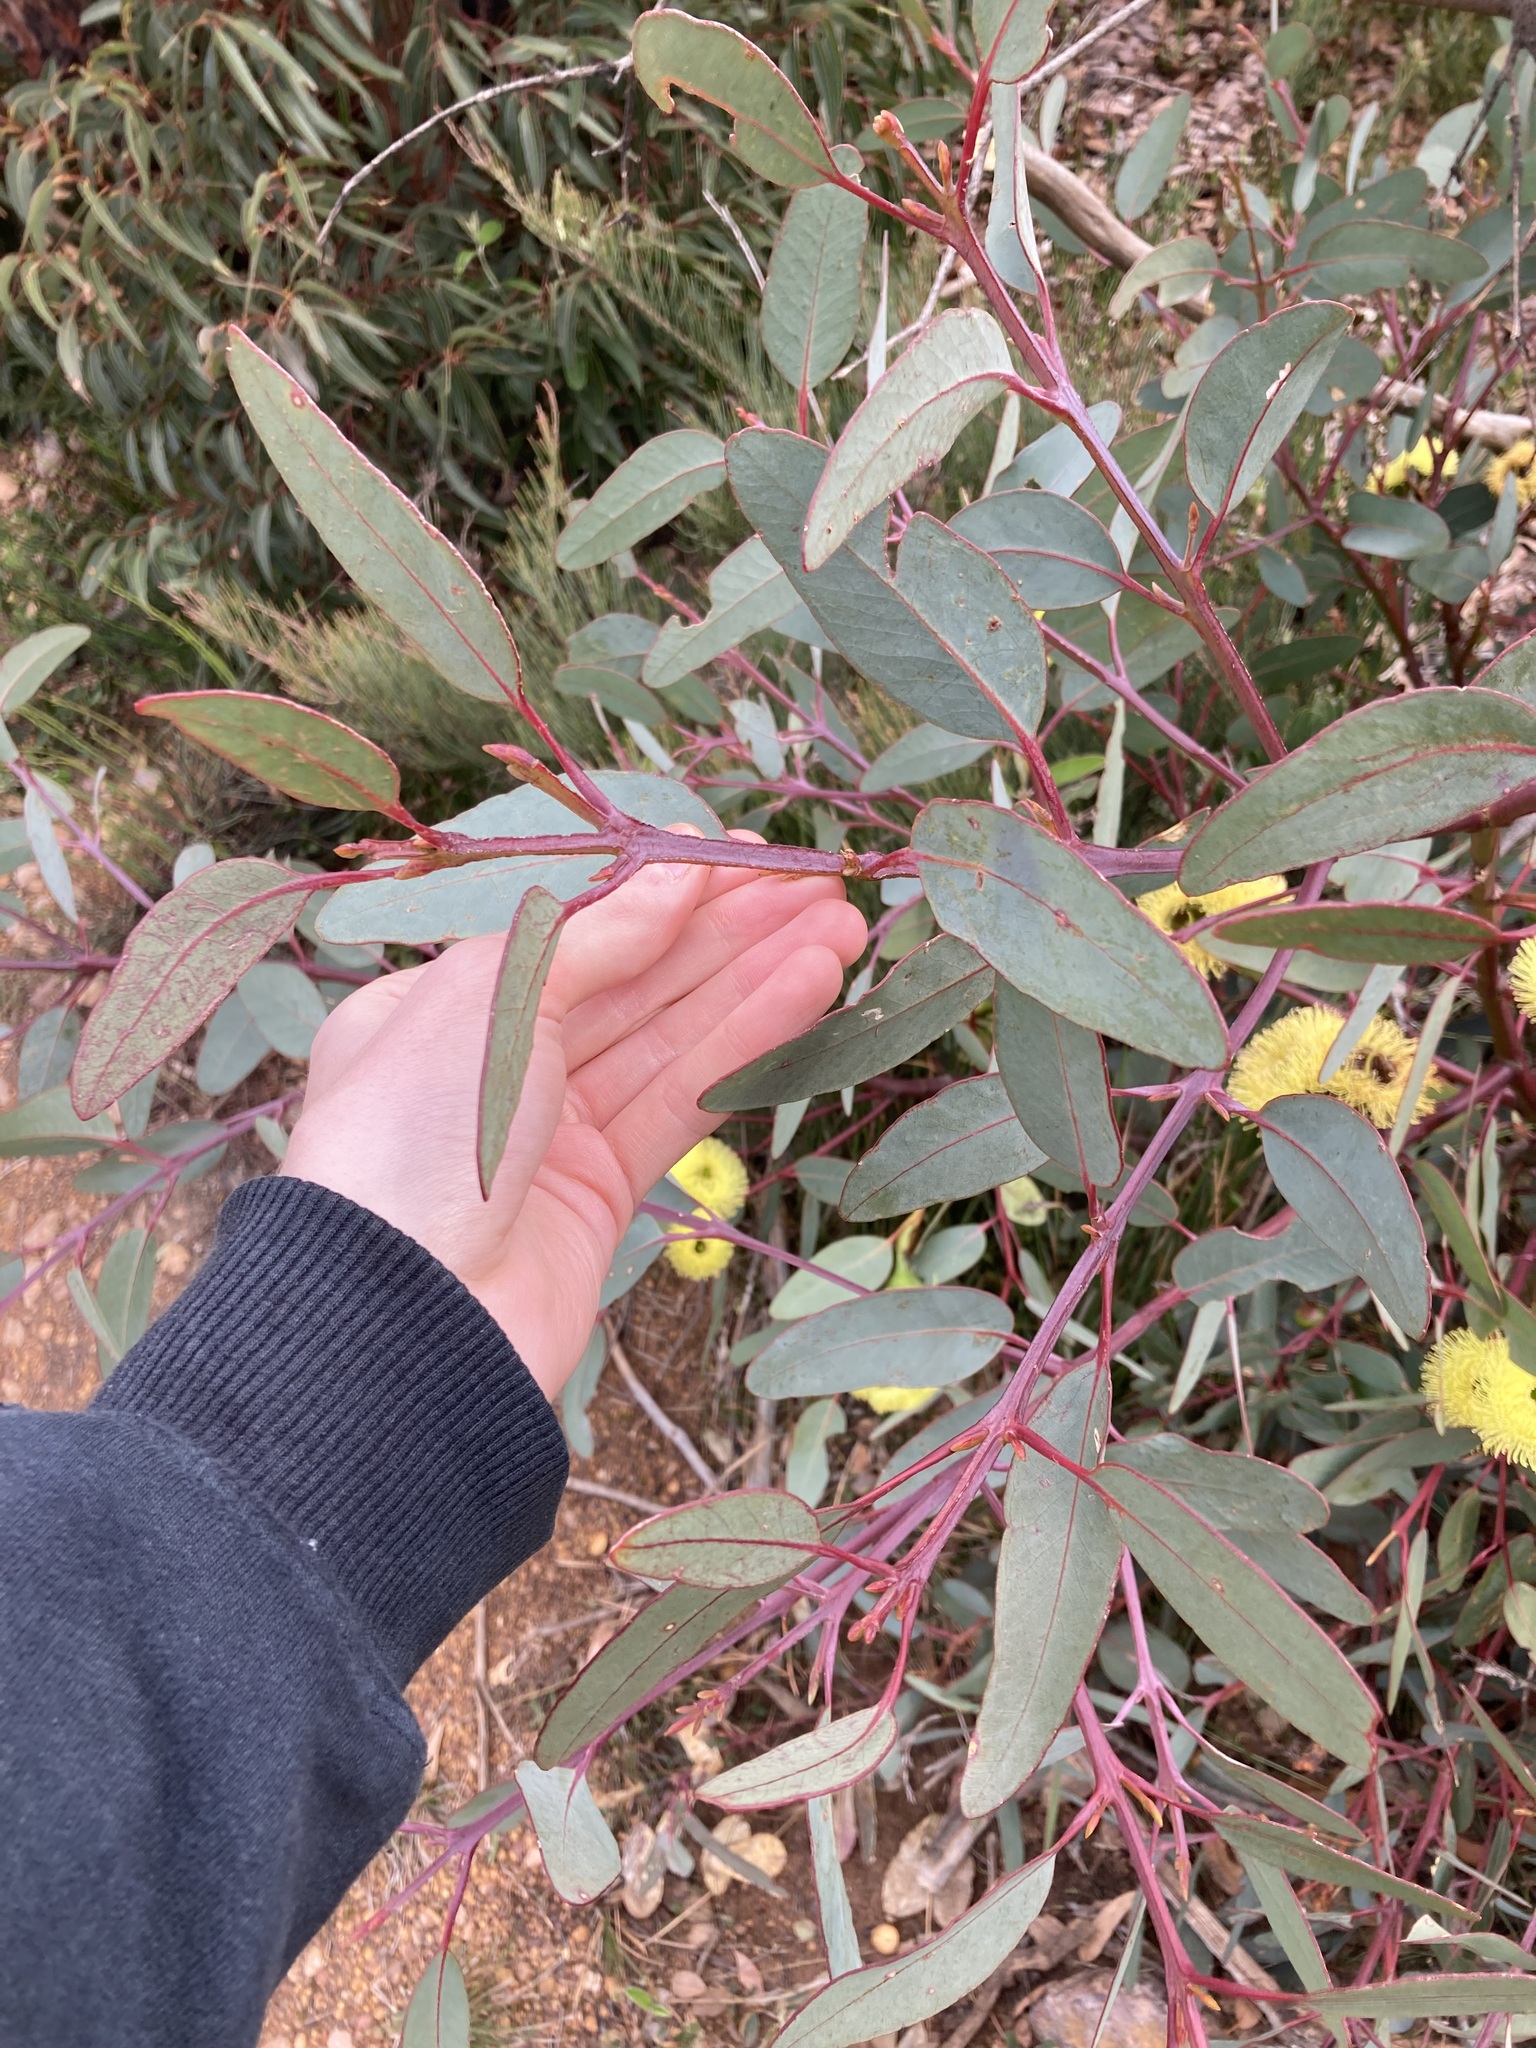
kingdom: Plantae
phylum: Tracheophyta
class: Magnoliopsida
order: Myrtales
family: Myrtaceae
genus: Eucalyptus
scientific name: Eucalyptus preissiana
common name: Stirling range mallee
